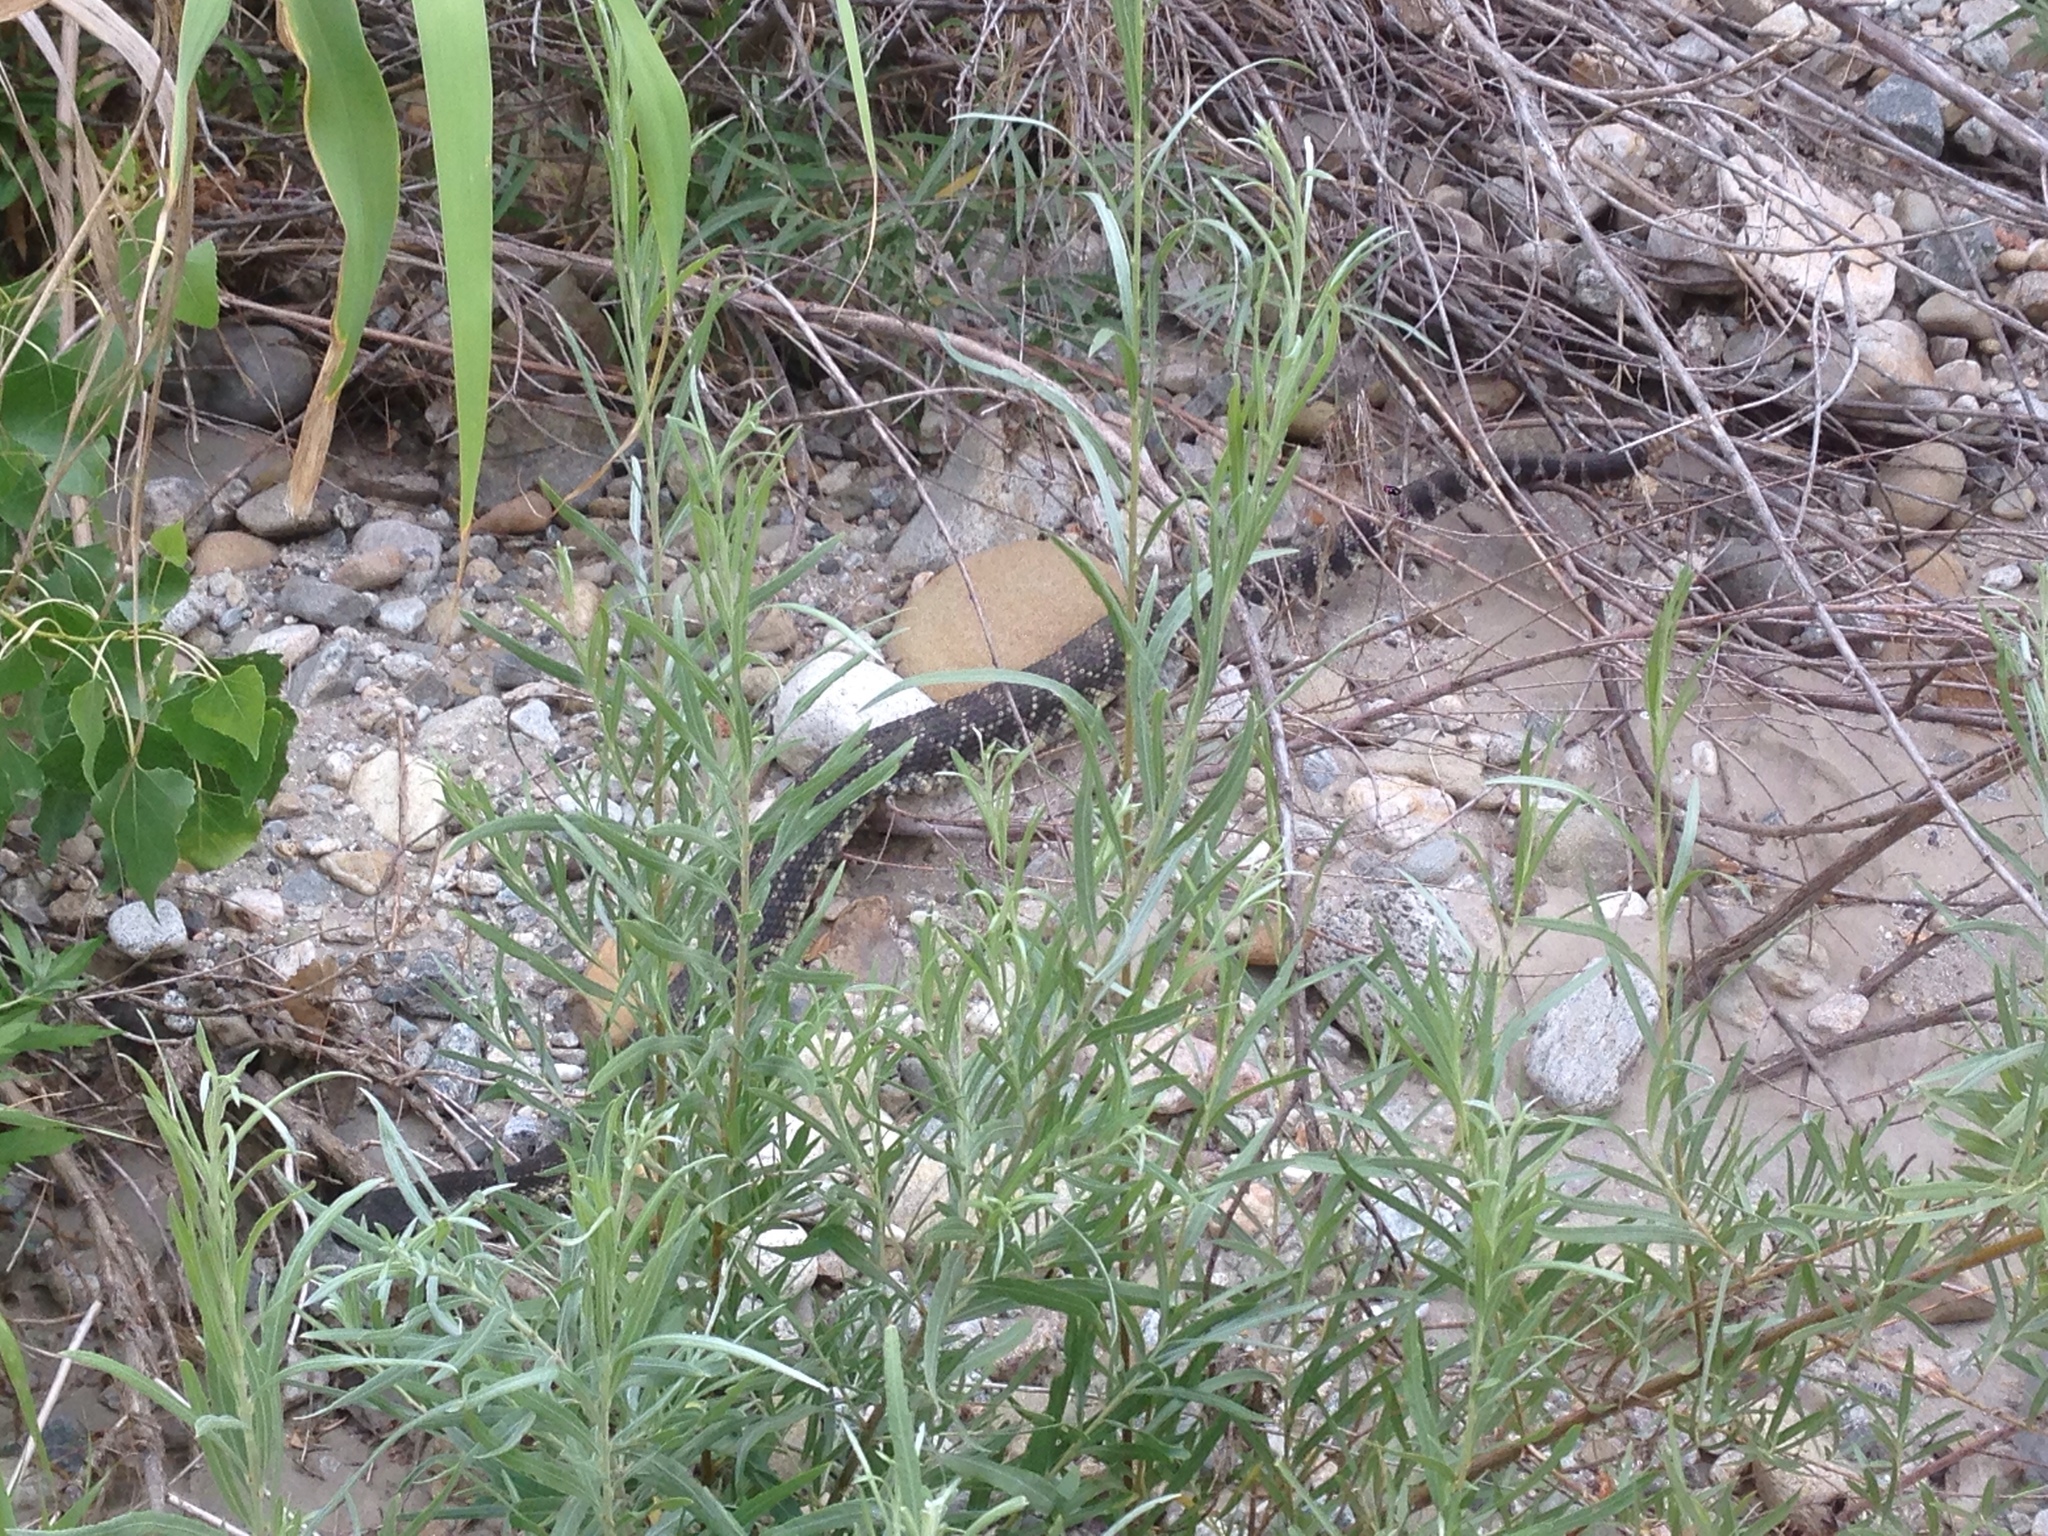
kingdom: Animalia
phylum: Chordata
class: Squamata
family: Viperidae
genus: Crotalus
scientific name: Crotalus oreganus
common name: Abyssus
